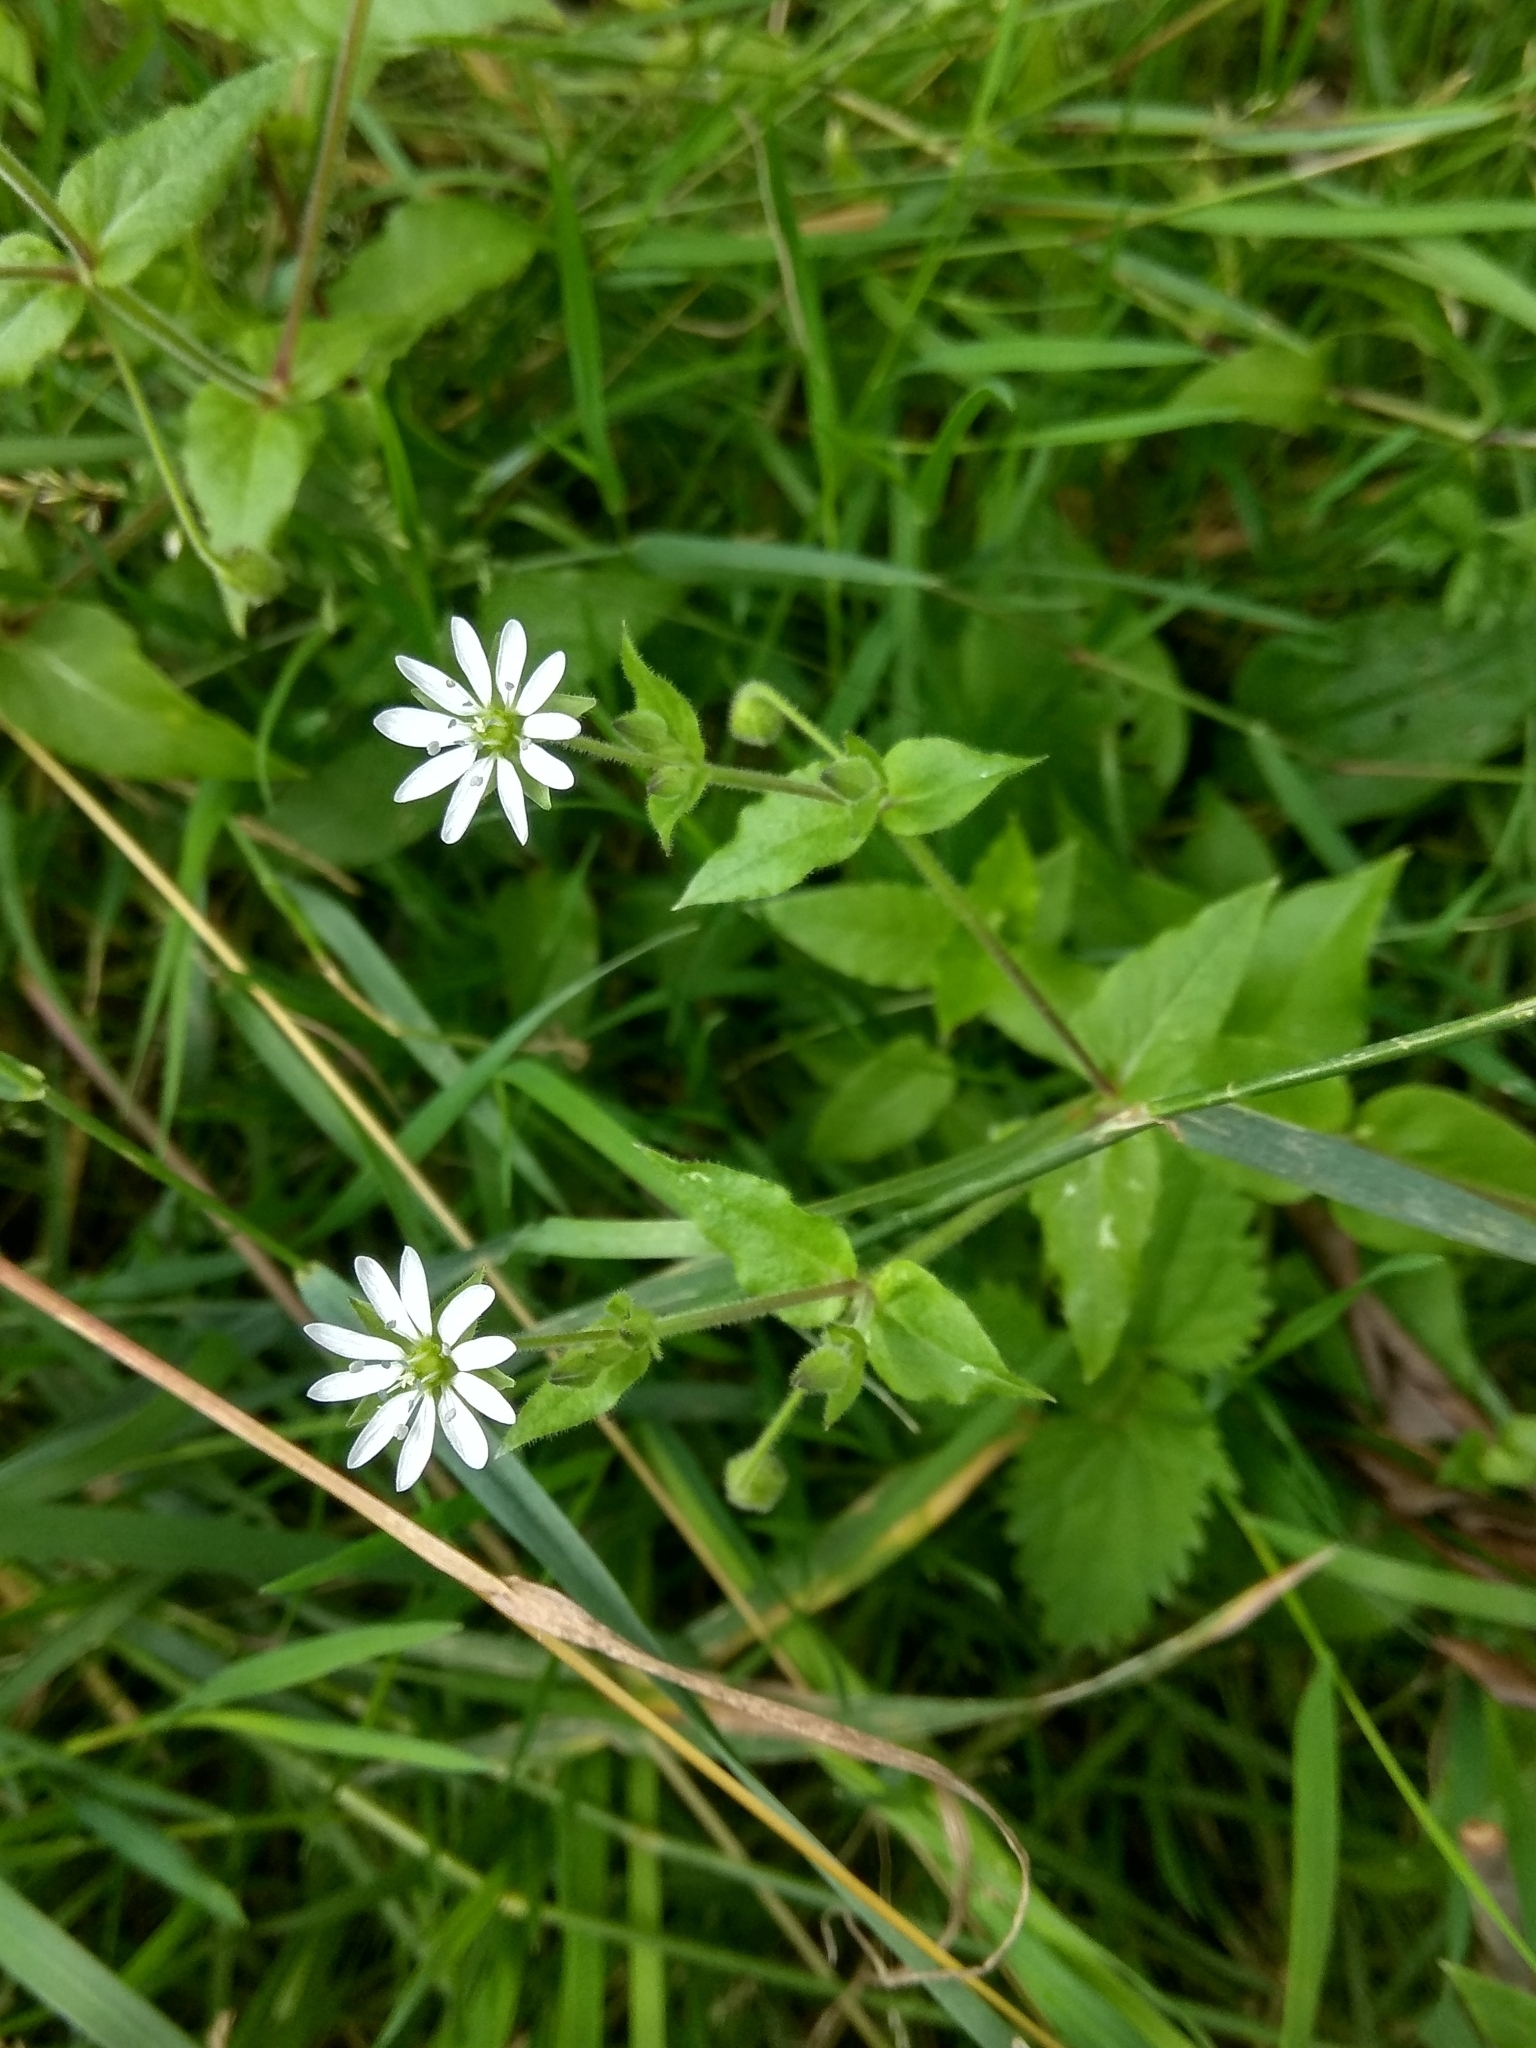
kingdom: Plantae
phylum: Tracheophyta
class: Magnoliopsida
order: Caryophyllales
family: Caryophyllaceae
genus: Stellaria
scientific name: Stellaria aquatica
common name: Water chickweed
